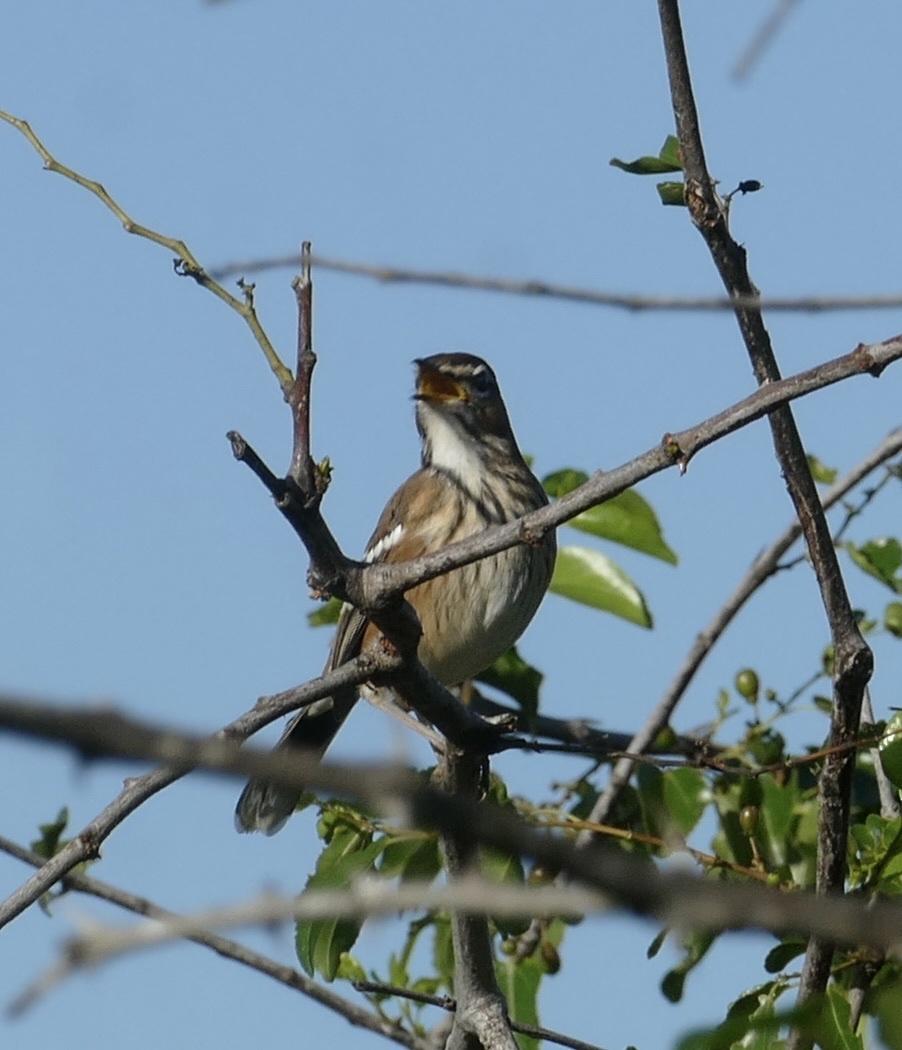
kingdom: Animalia
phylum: Chordata
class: Aves
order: Passeriformes
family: Muscicapidae
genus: Erythropygia
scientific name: Erythropygia leucophrys
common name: White-browed scrub robin
